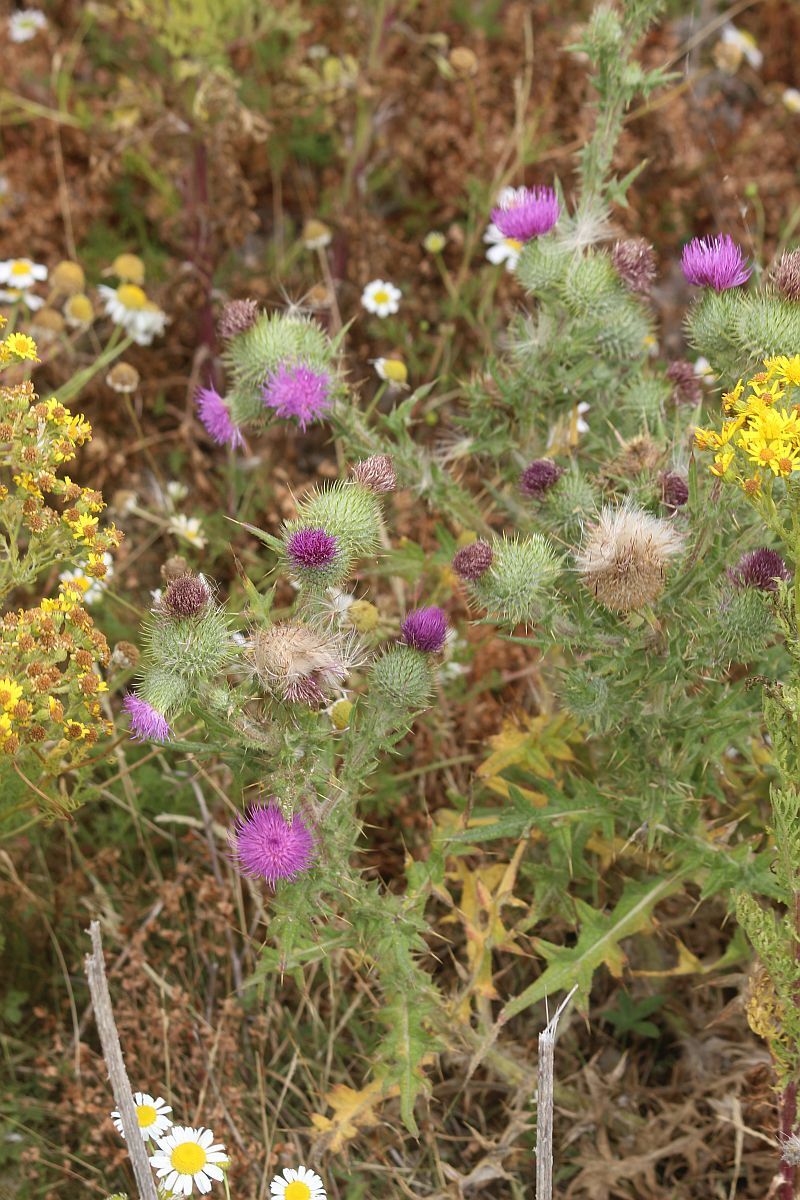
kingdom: Plantae
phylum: Tracheophyta
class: Magnoliopsida
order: Asterales
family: Asteraceae
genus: Cirsium
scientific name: Cirsium vulgare
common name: Bull thistle
